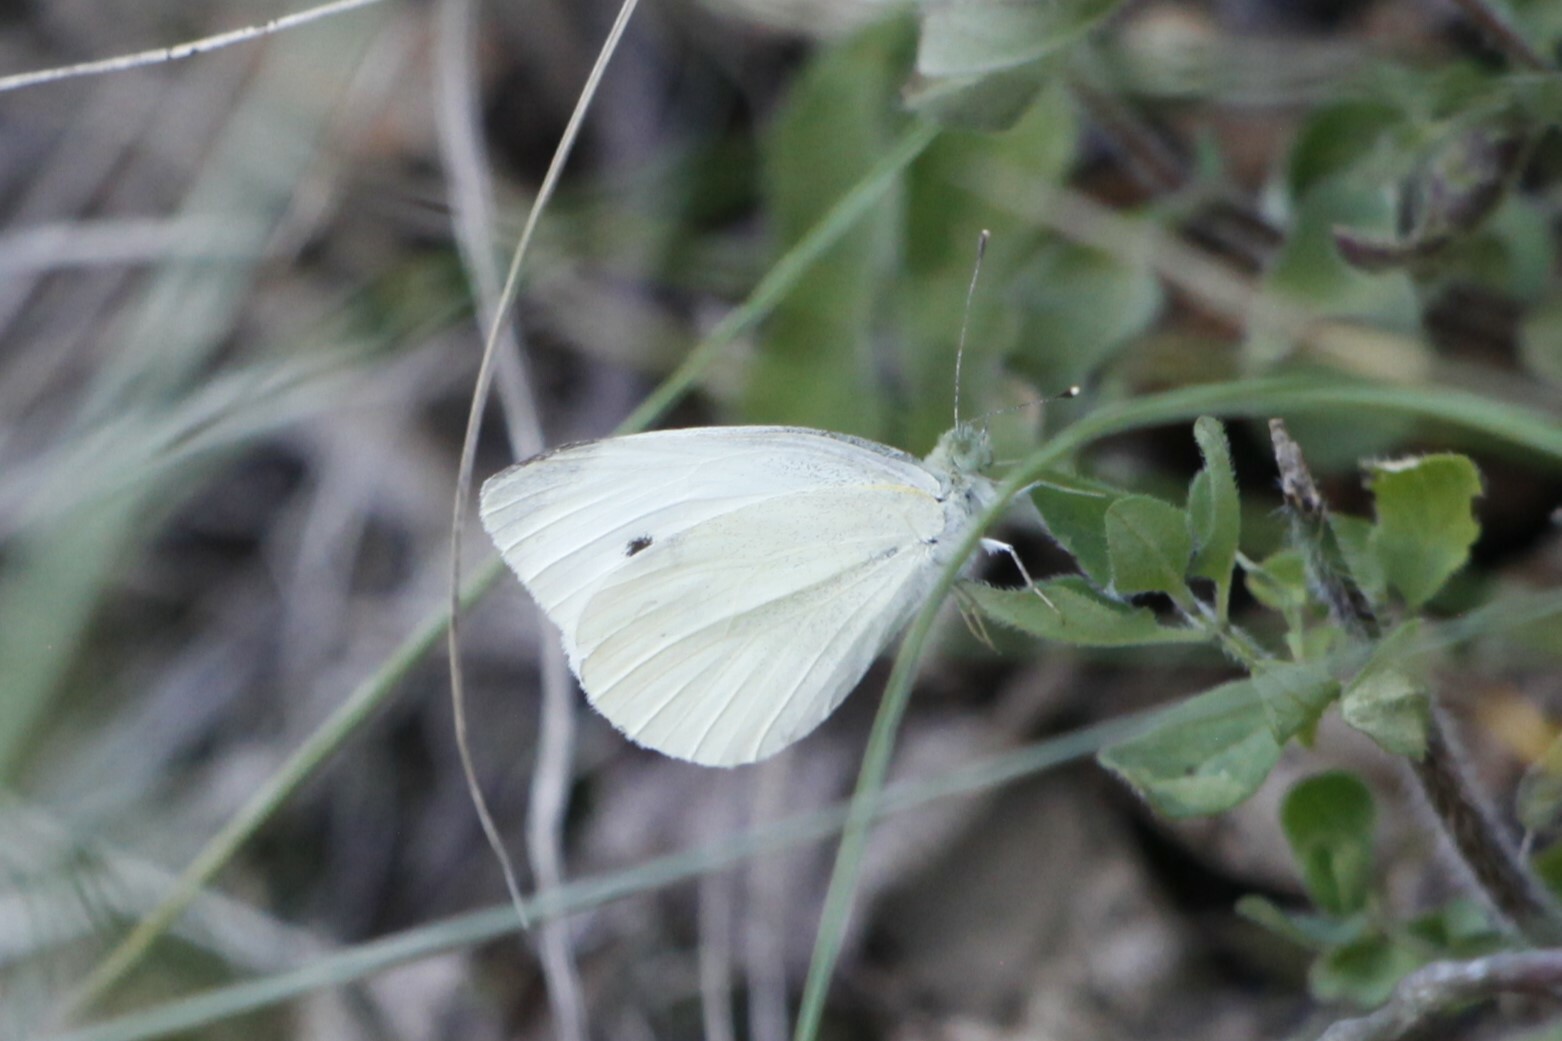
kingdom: Animalia
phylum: Arthropoda
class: Insecta
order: Lepidoptera
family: Pieridae
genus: Pieris
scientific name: Pieris rapae
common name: Small white
